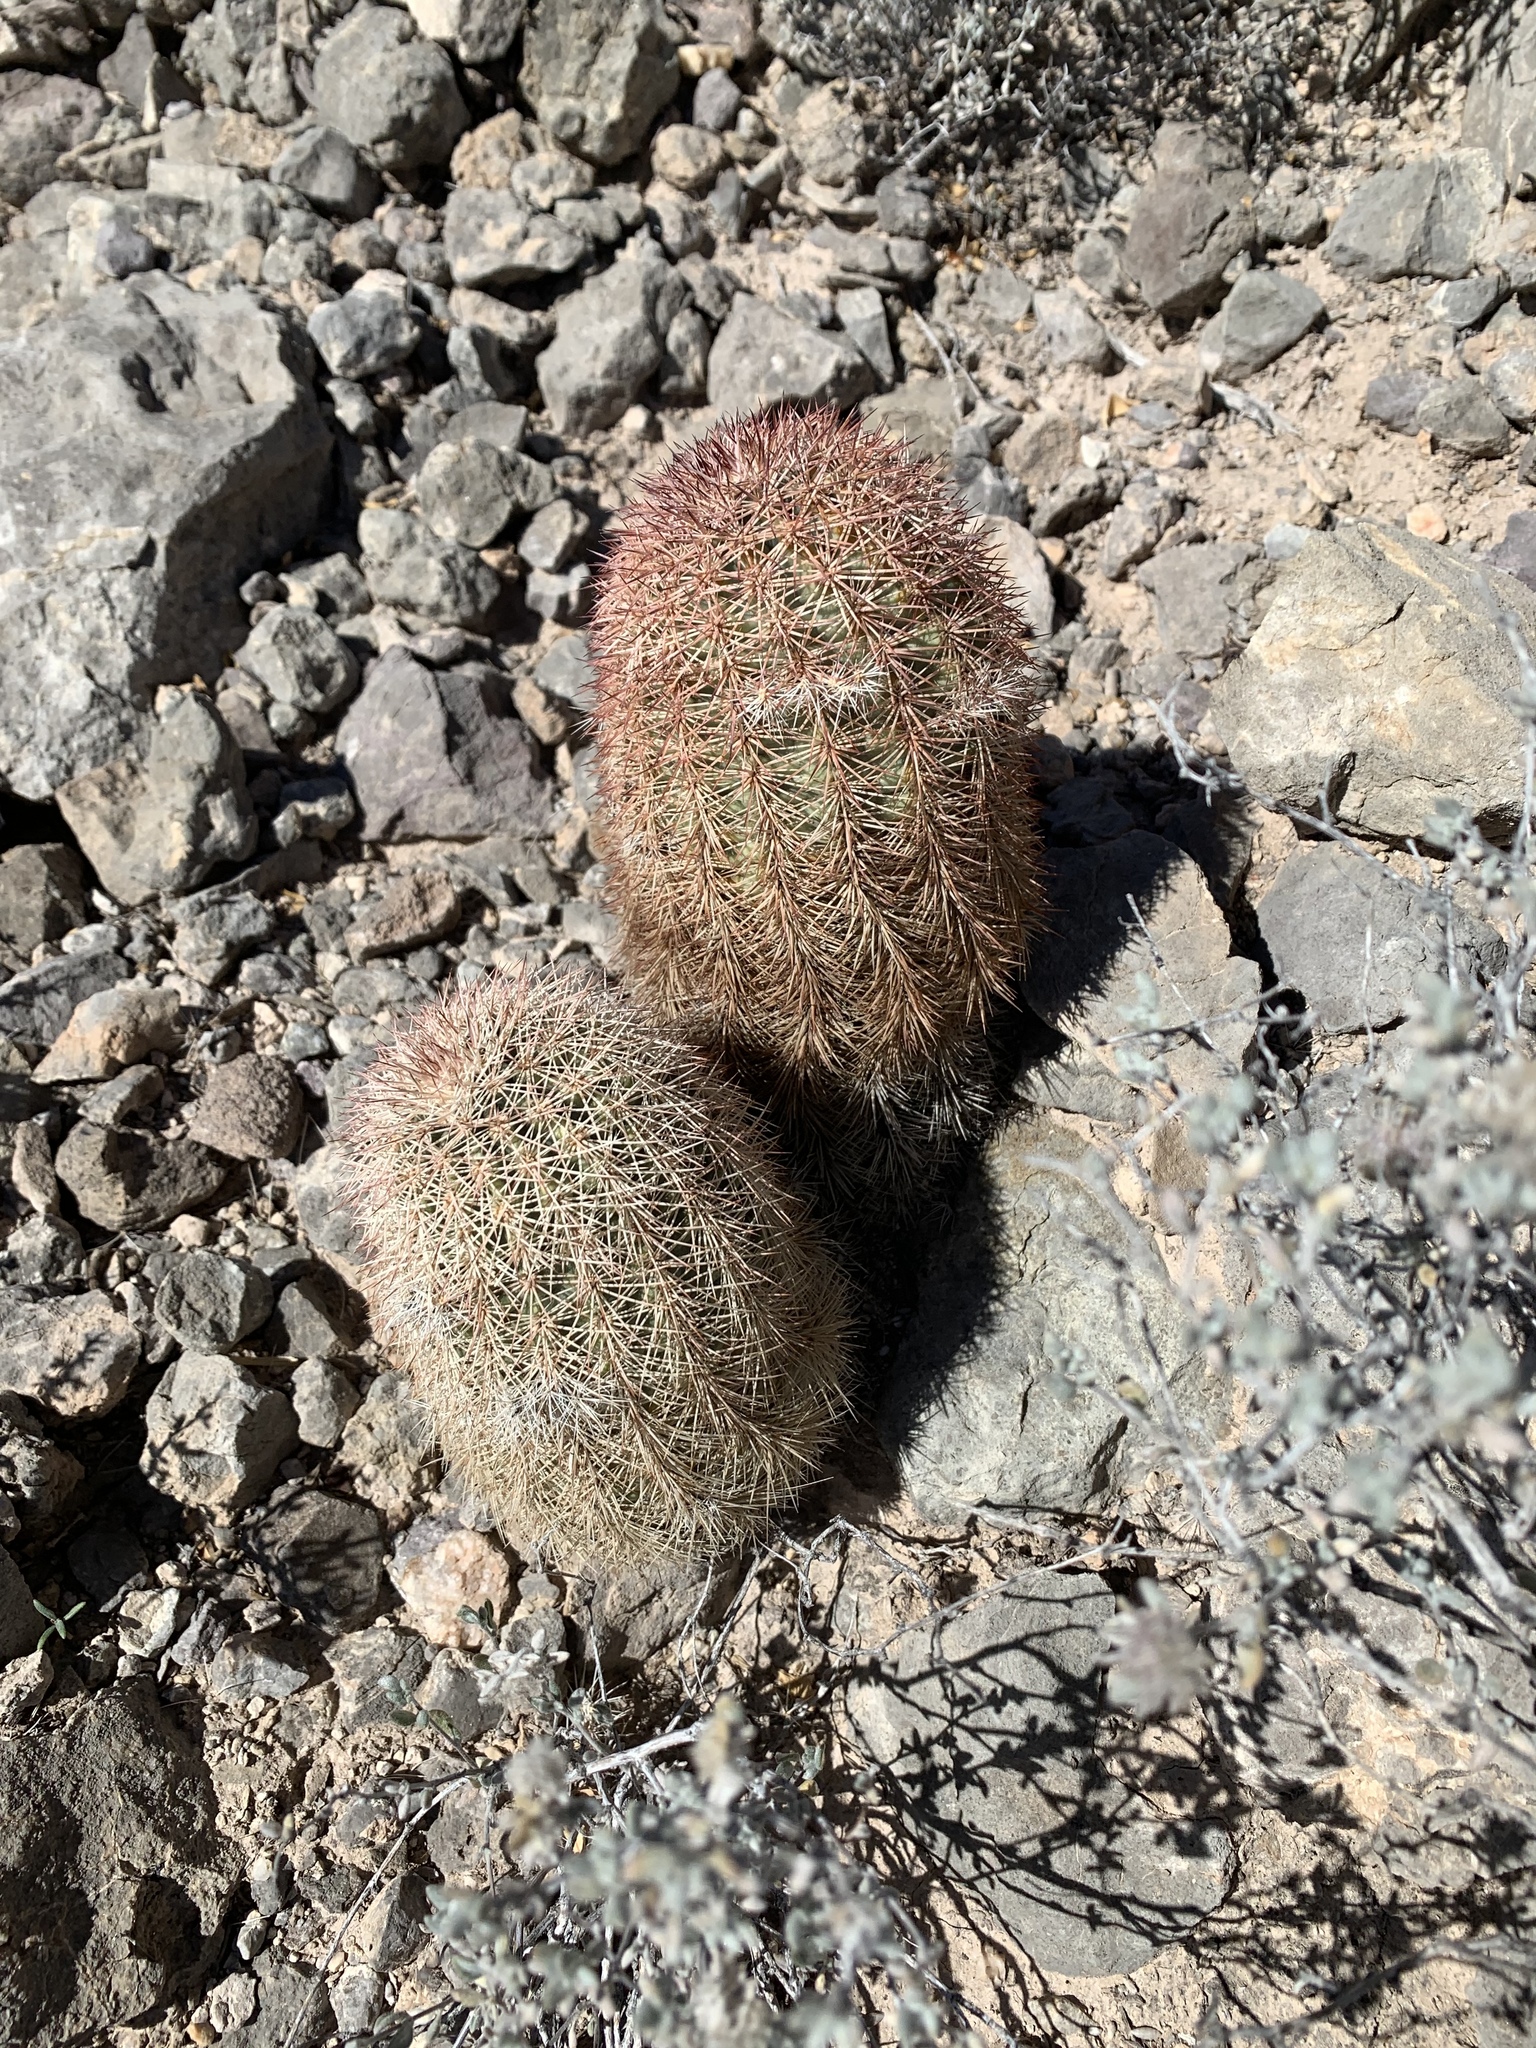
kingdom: Plantae
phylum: Tracheophyta
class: Magnoliopsida
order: Caryophyllales
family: Cactaceae
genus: Echinocereus
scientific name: Echinocereus dasyacanthus
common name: Spiny hedgehog cactus
